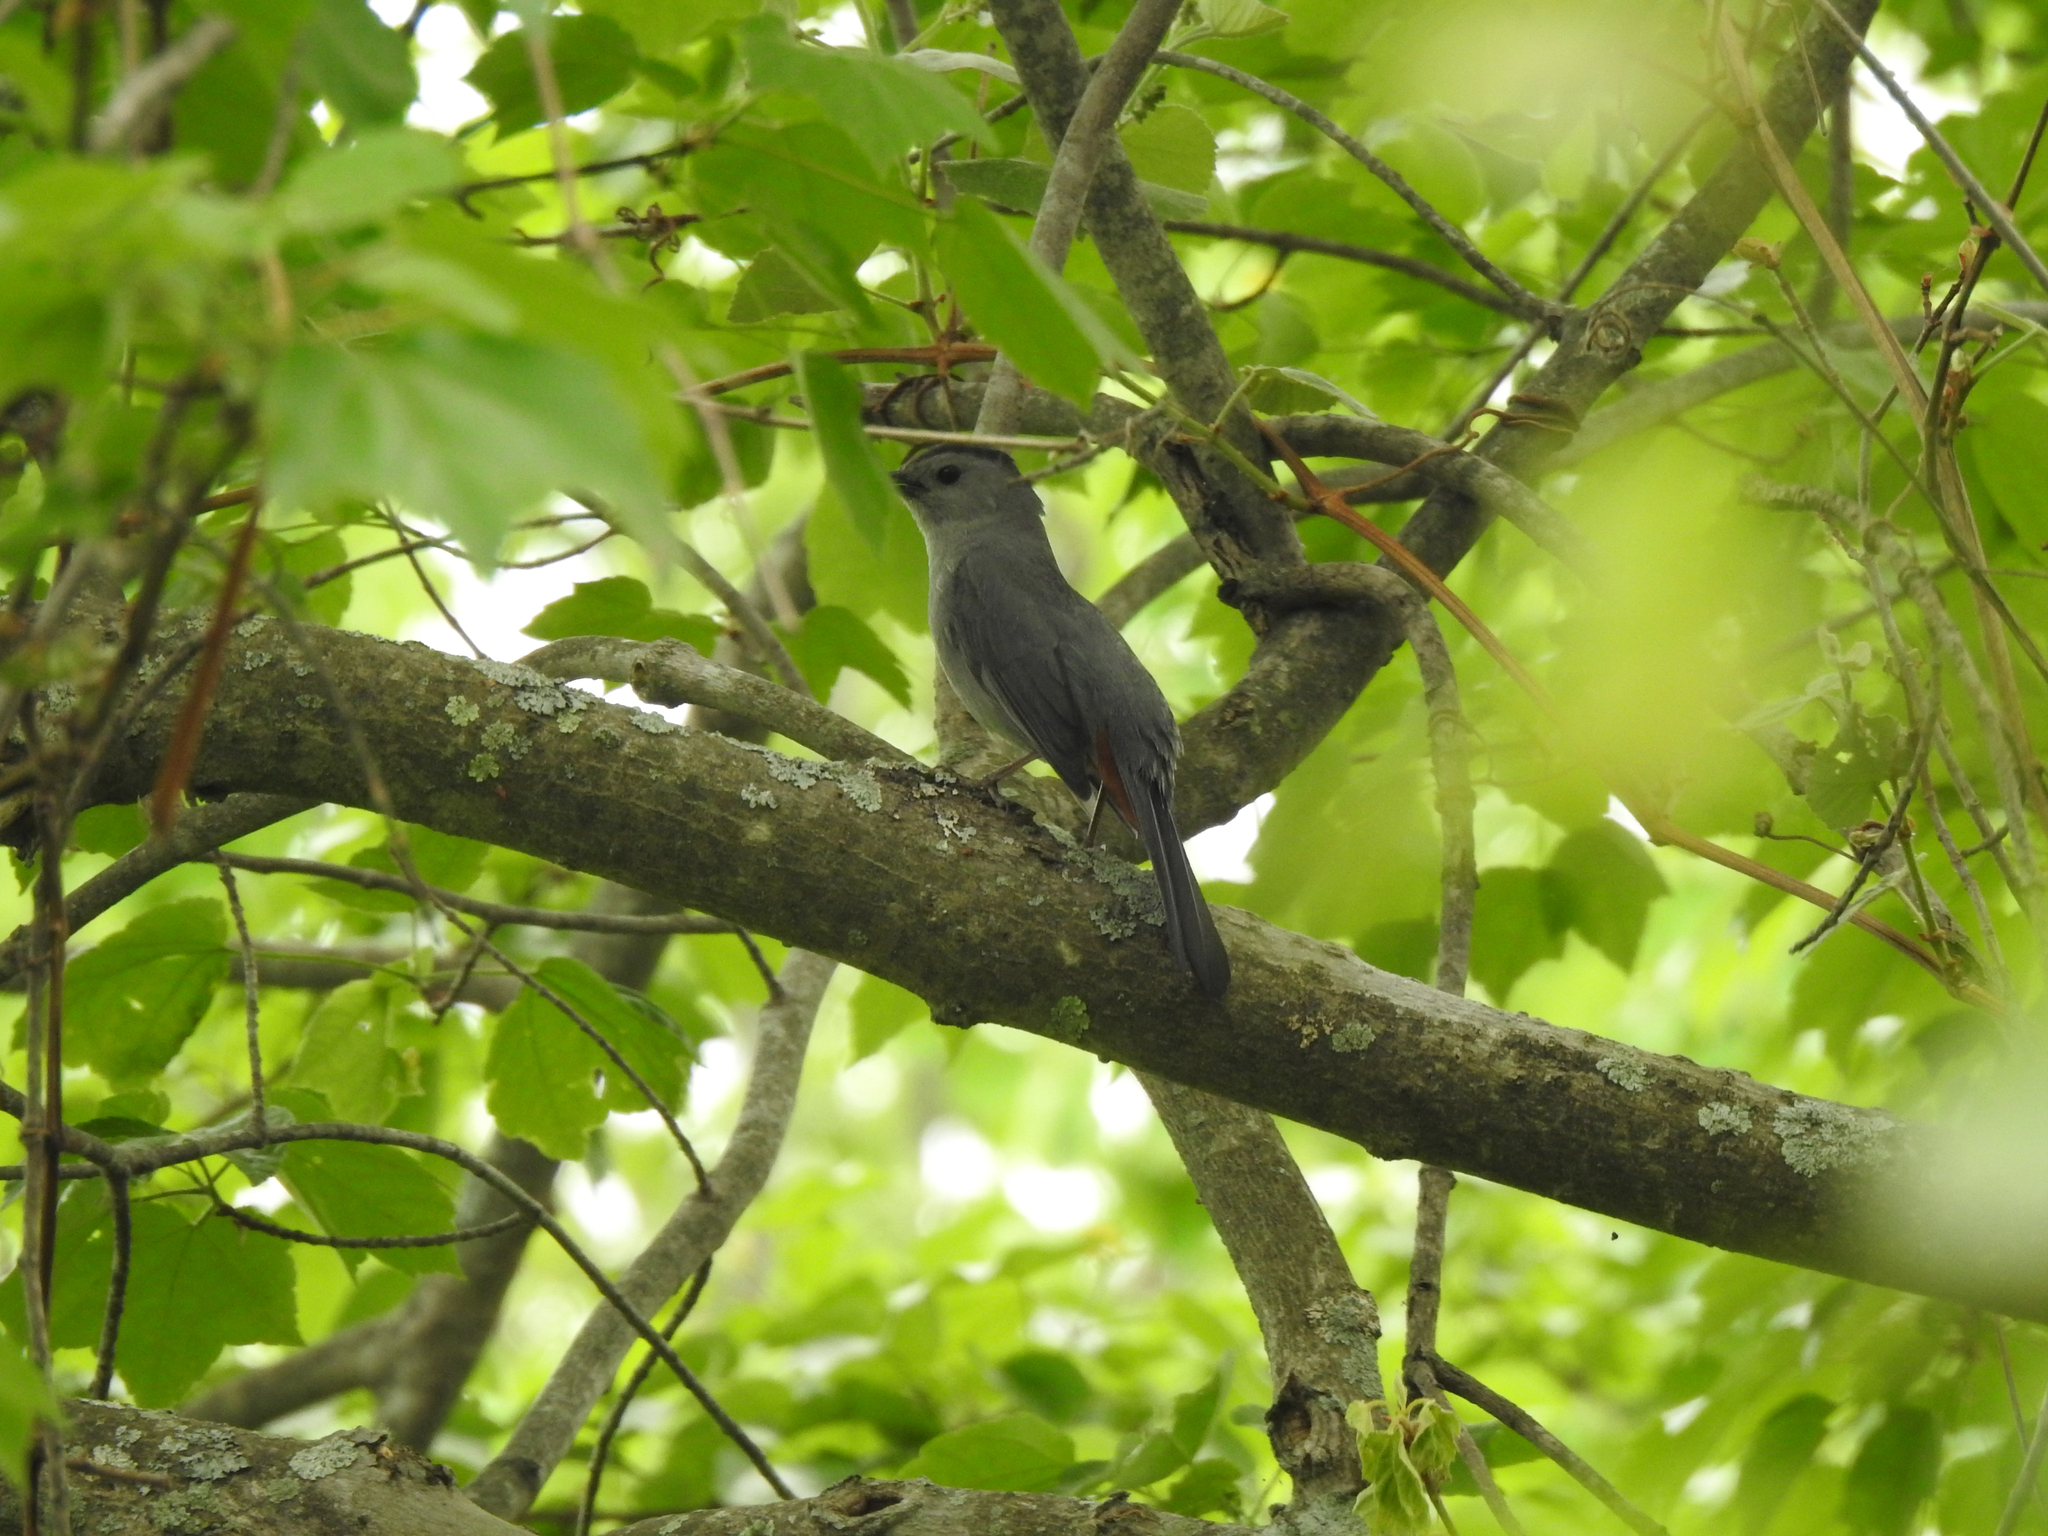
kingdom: Animalia
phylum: Chordata
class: Aves
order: Passeriformes
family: Mimidae
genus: Dumetella
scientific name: Dumetella carolinensis
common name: Gray catbird
